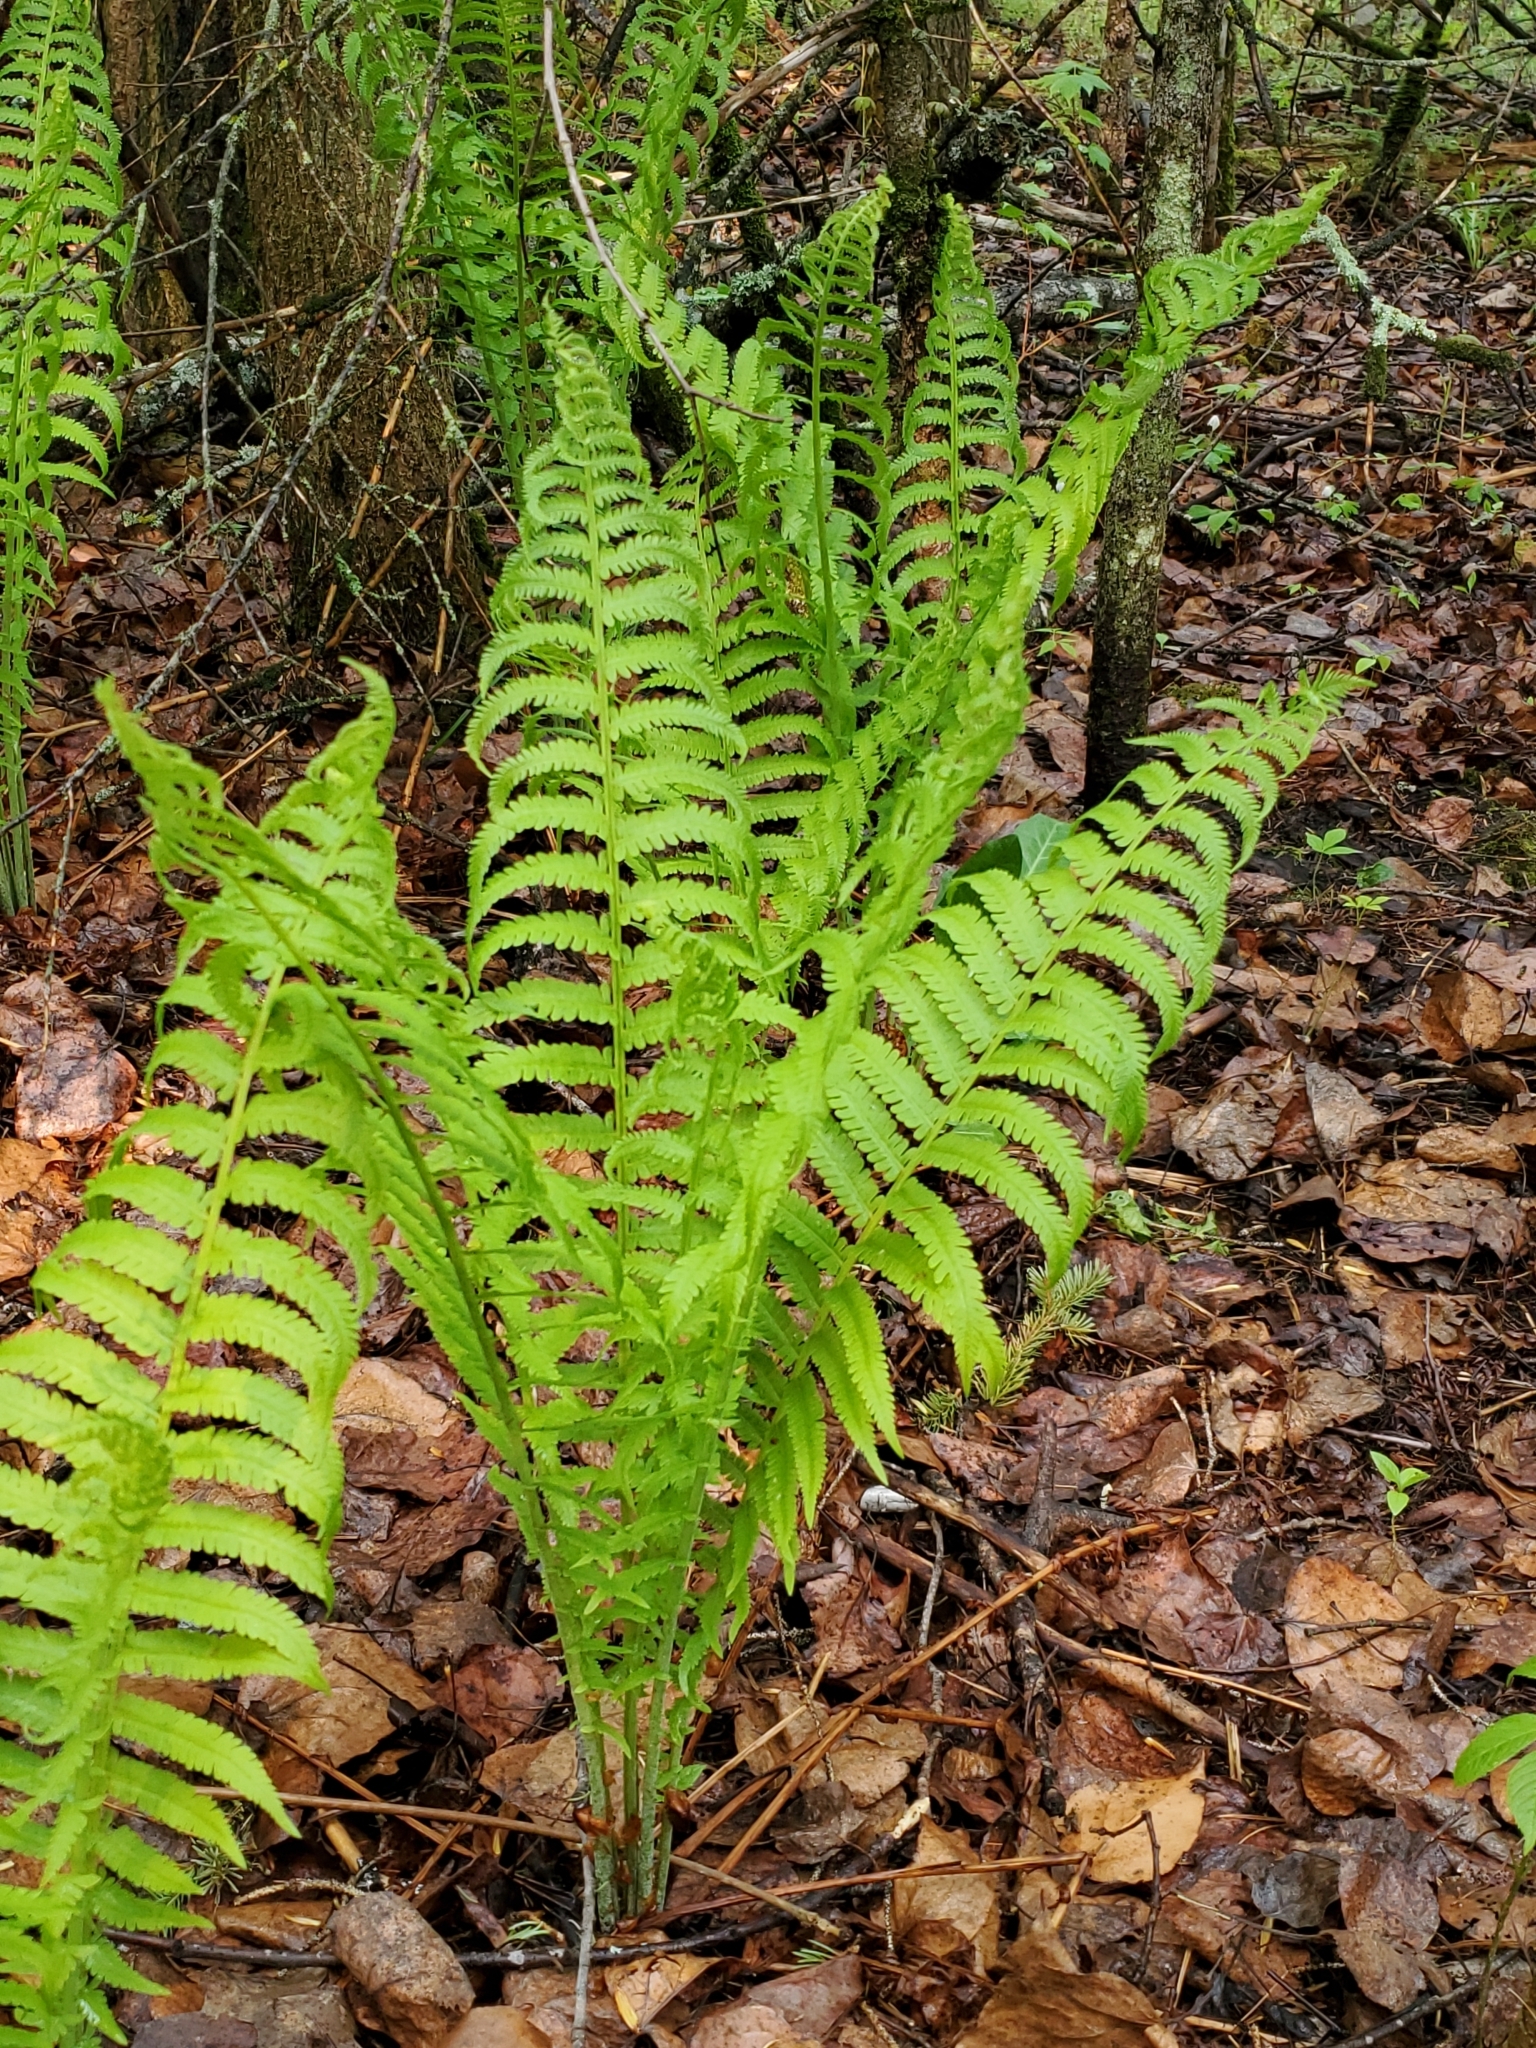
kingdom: Plantae
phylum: Tracheophyta
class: Polypodiopsida
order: Polypodiales
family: Onocleaceae
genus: Matteuccia
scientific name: Matteuccia struthiopteris
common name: Ostrich fern
